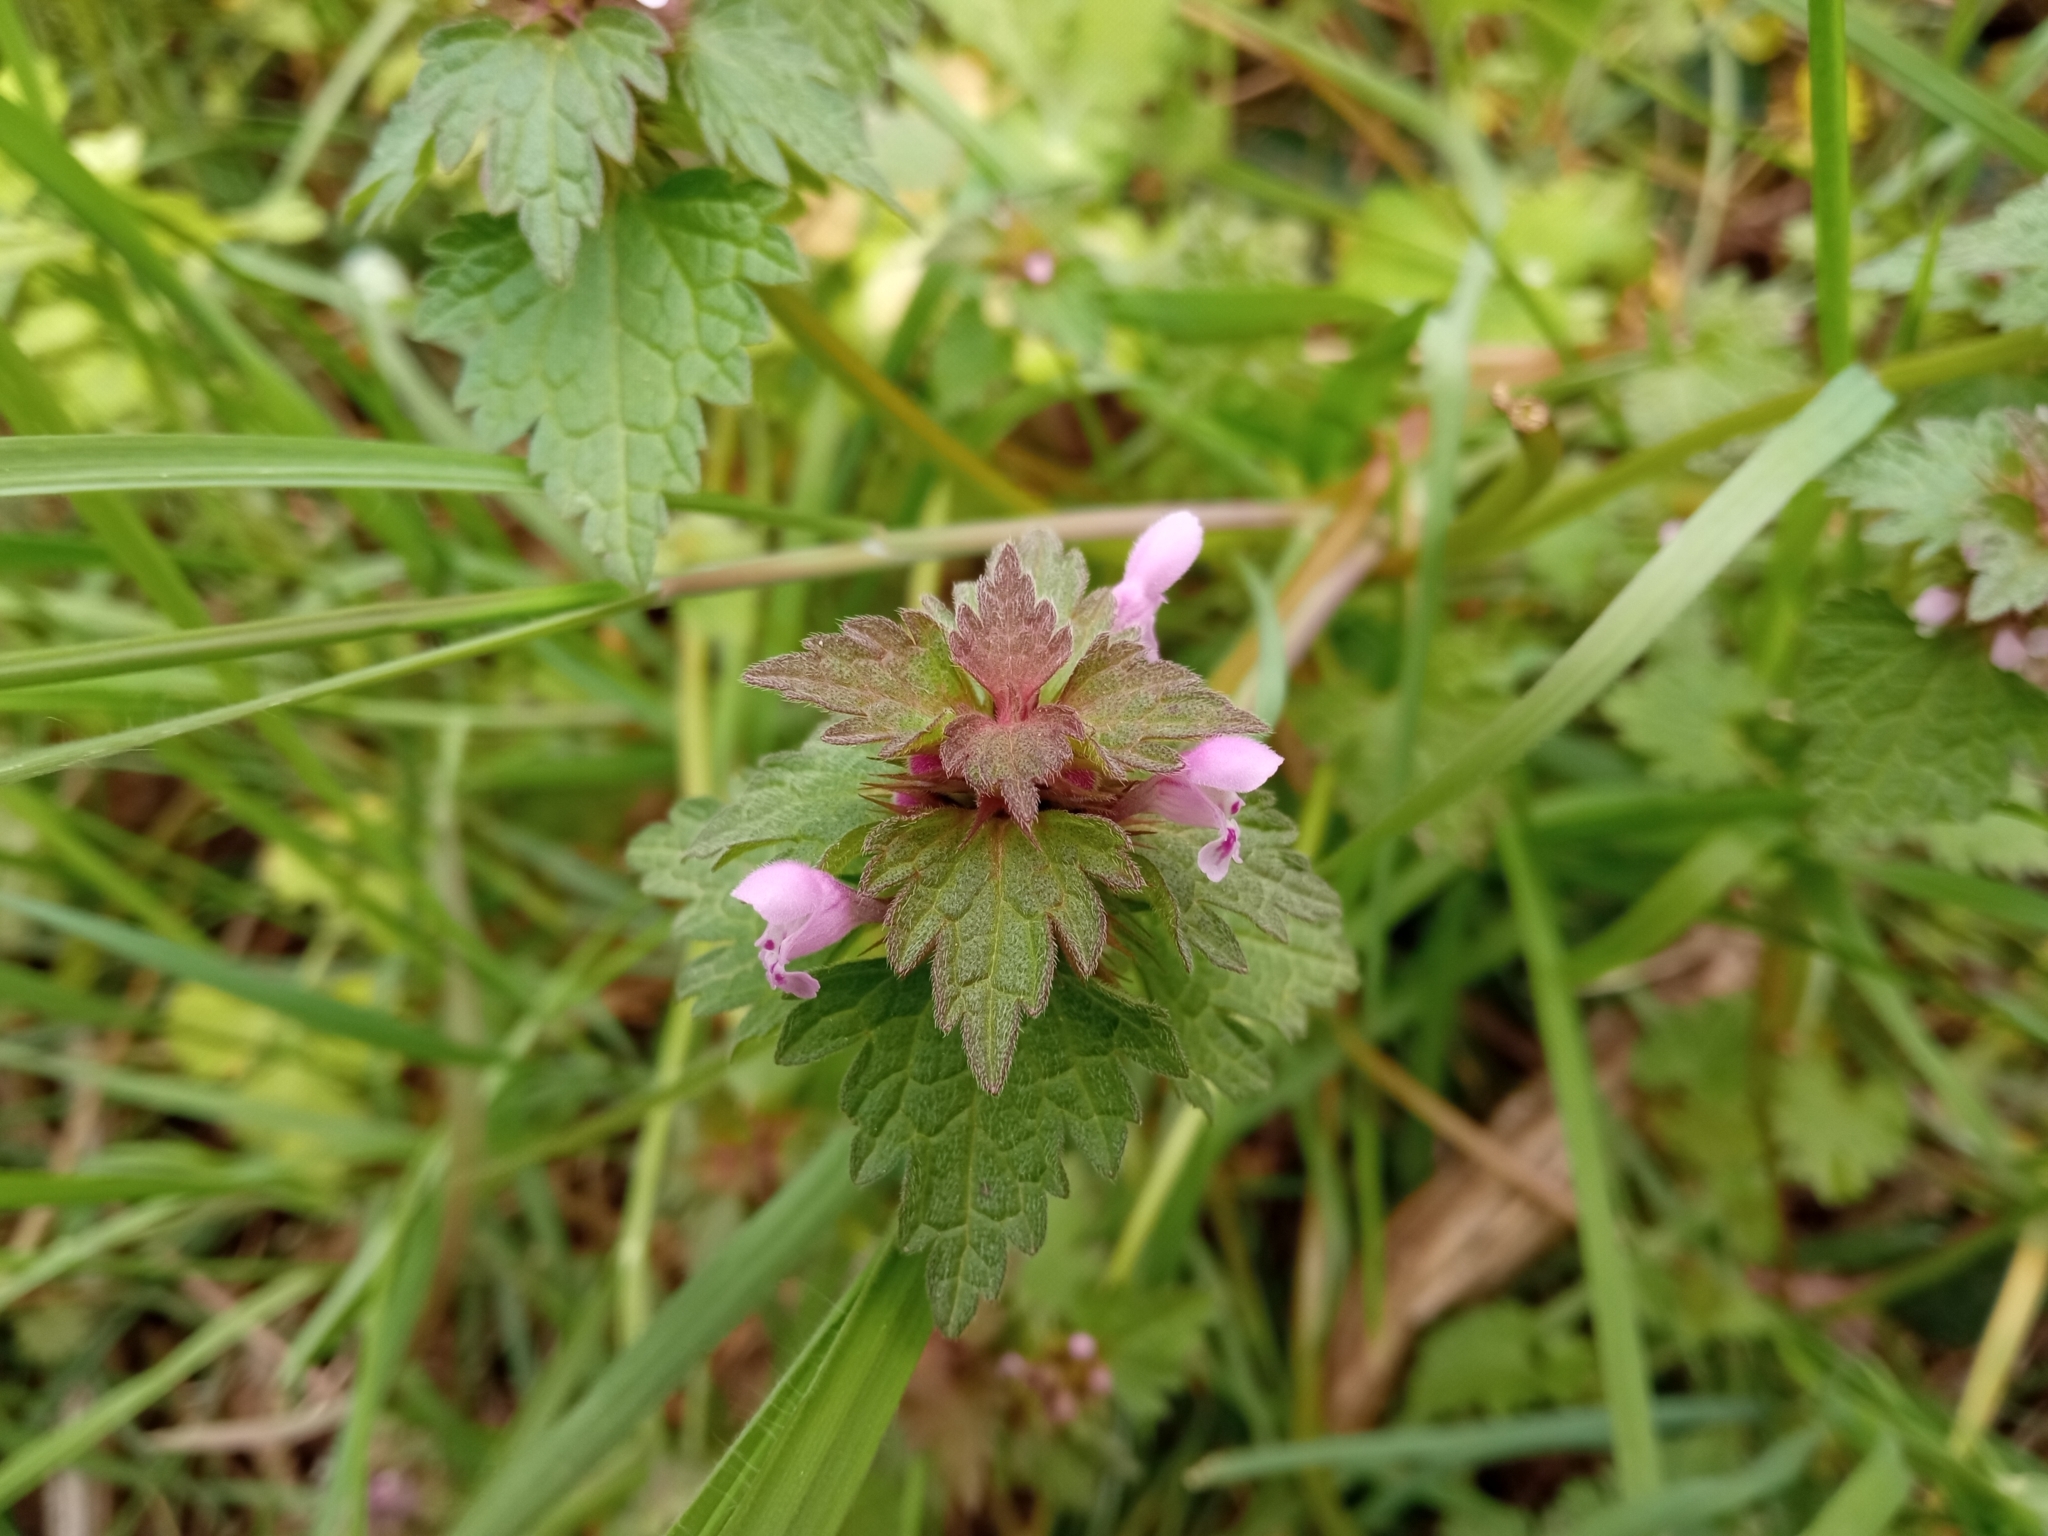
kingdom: Plantae
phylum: Tracheophyta
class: Magnoliopsida
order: Lamiales
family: Lamiaceae
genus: Lamium
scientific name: Lamium hybridum
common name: Cut-leaved dead-nettle
